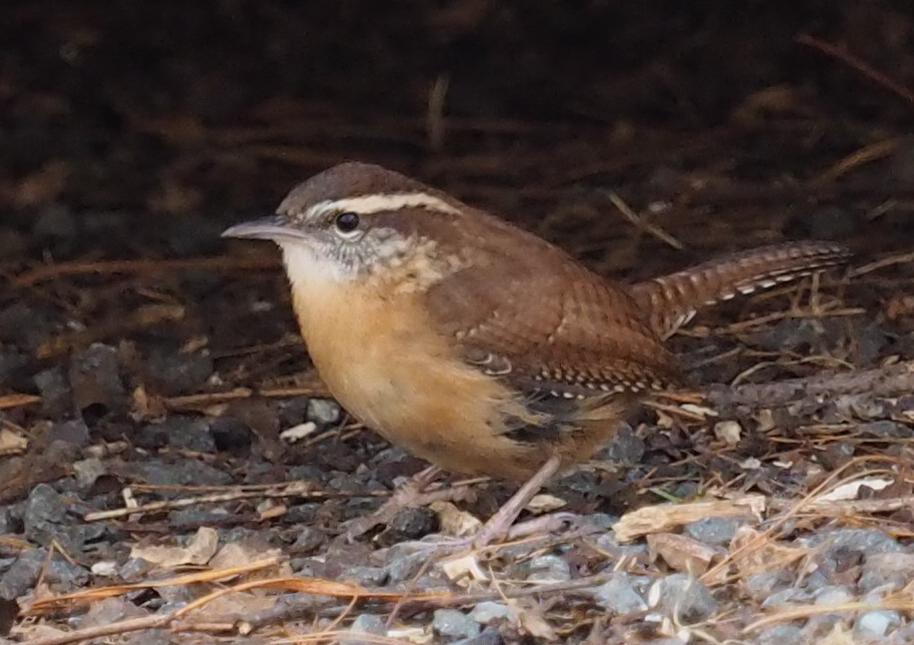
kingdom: Animalia
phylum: Chordata
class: Aves
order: Passeriformes
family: Troglodytidae
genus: Thryothorus
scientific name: Thryothorus ludovicianus
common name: Carolina wren
